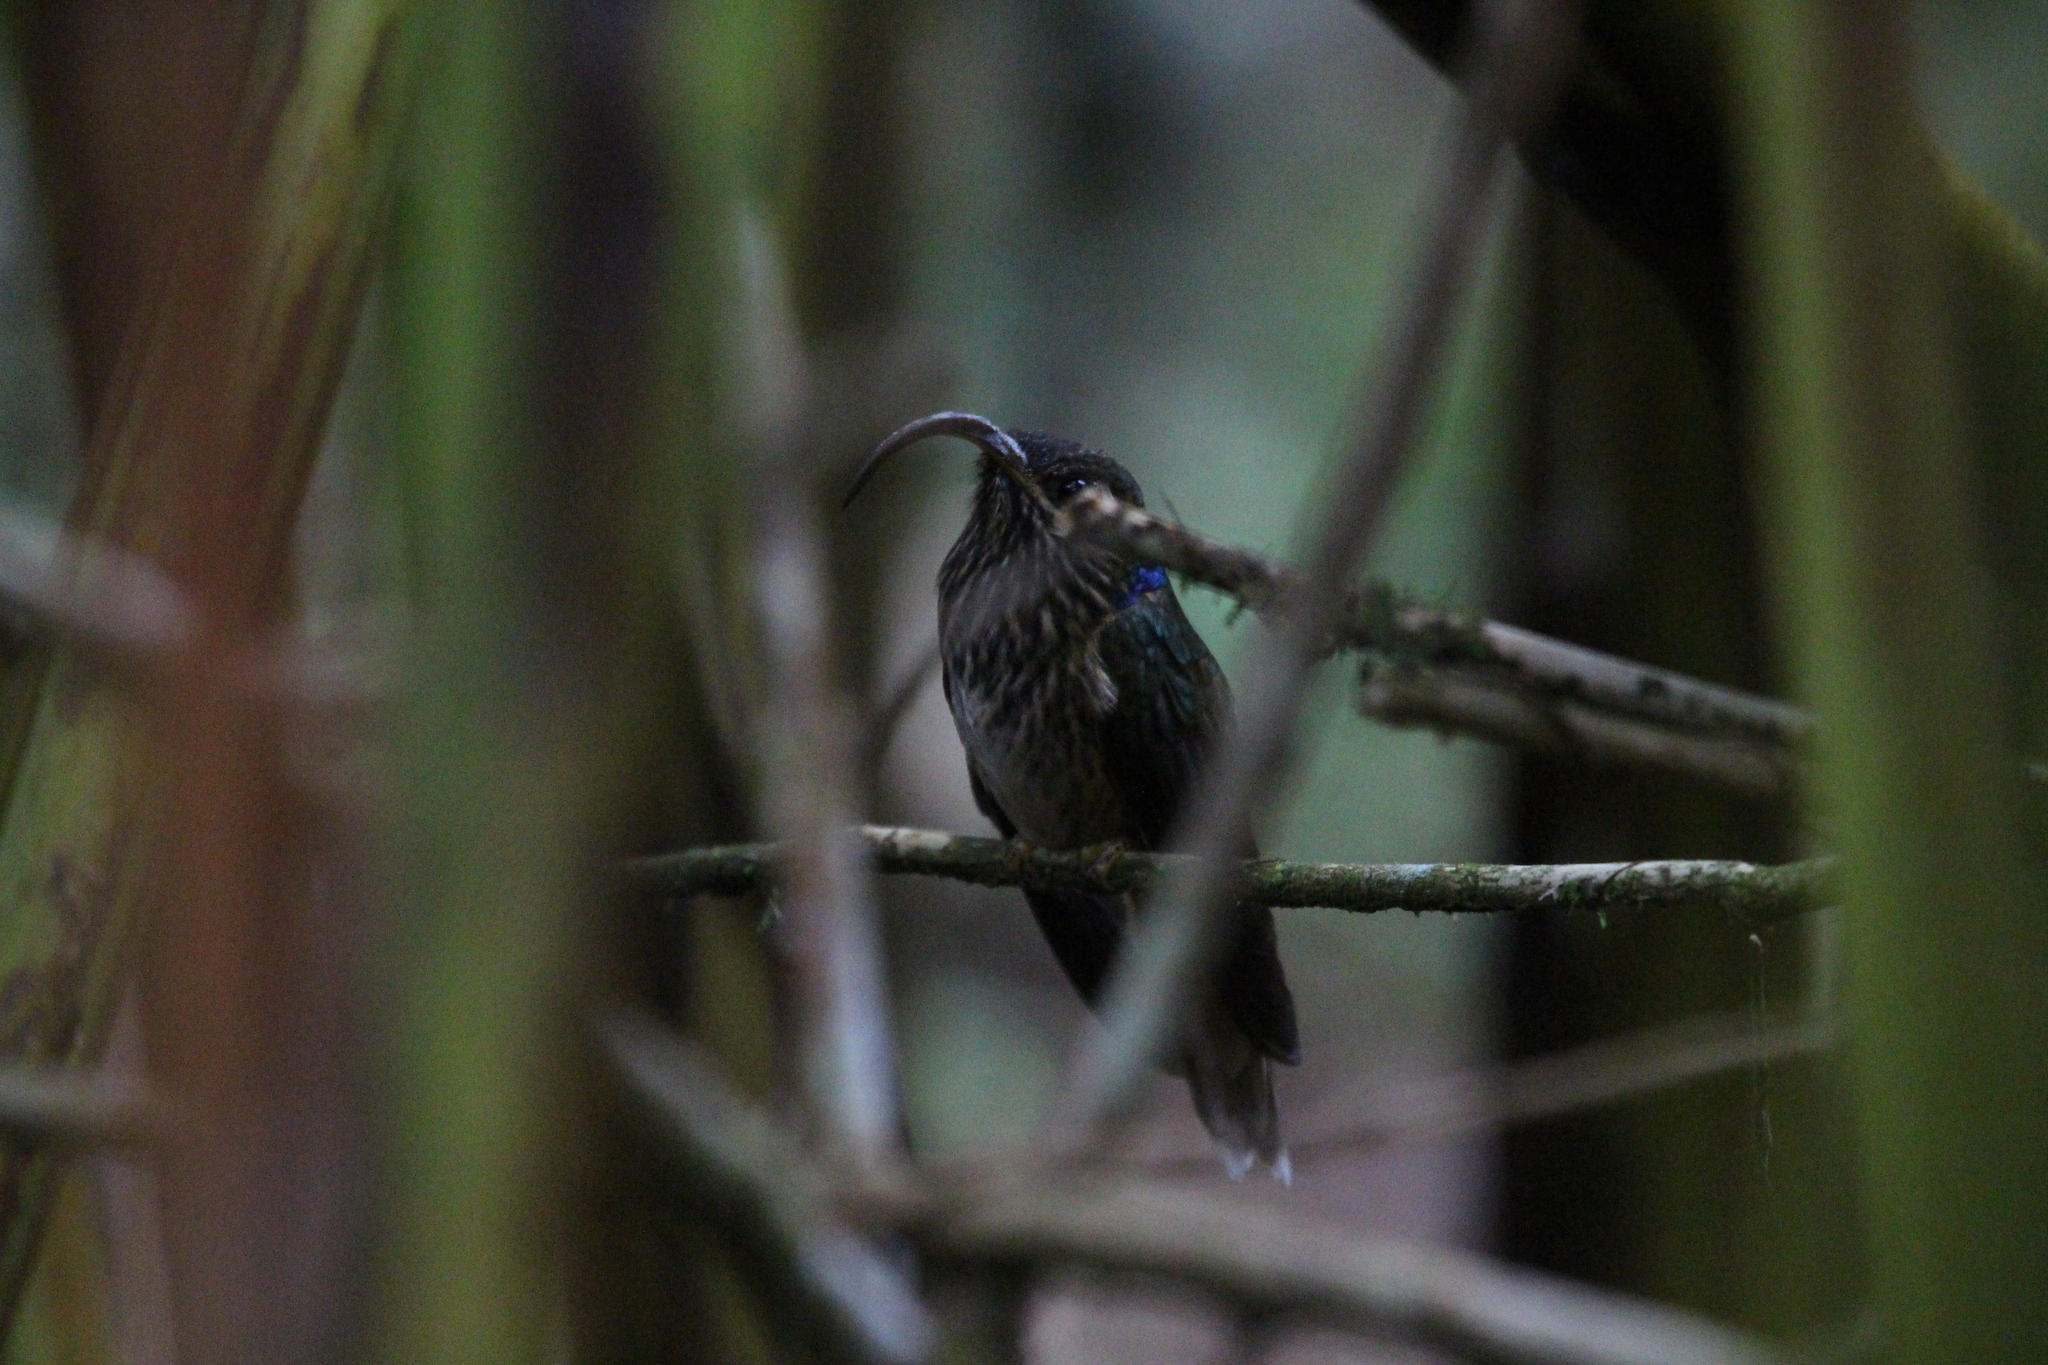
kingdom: Animalia
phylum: Chordata
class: Aves
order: Apodiformes
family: Trochilidae
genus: Eutoxeres
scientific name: Eutoxeres condamini
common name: Buff-tailed sicklebill
